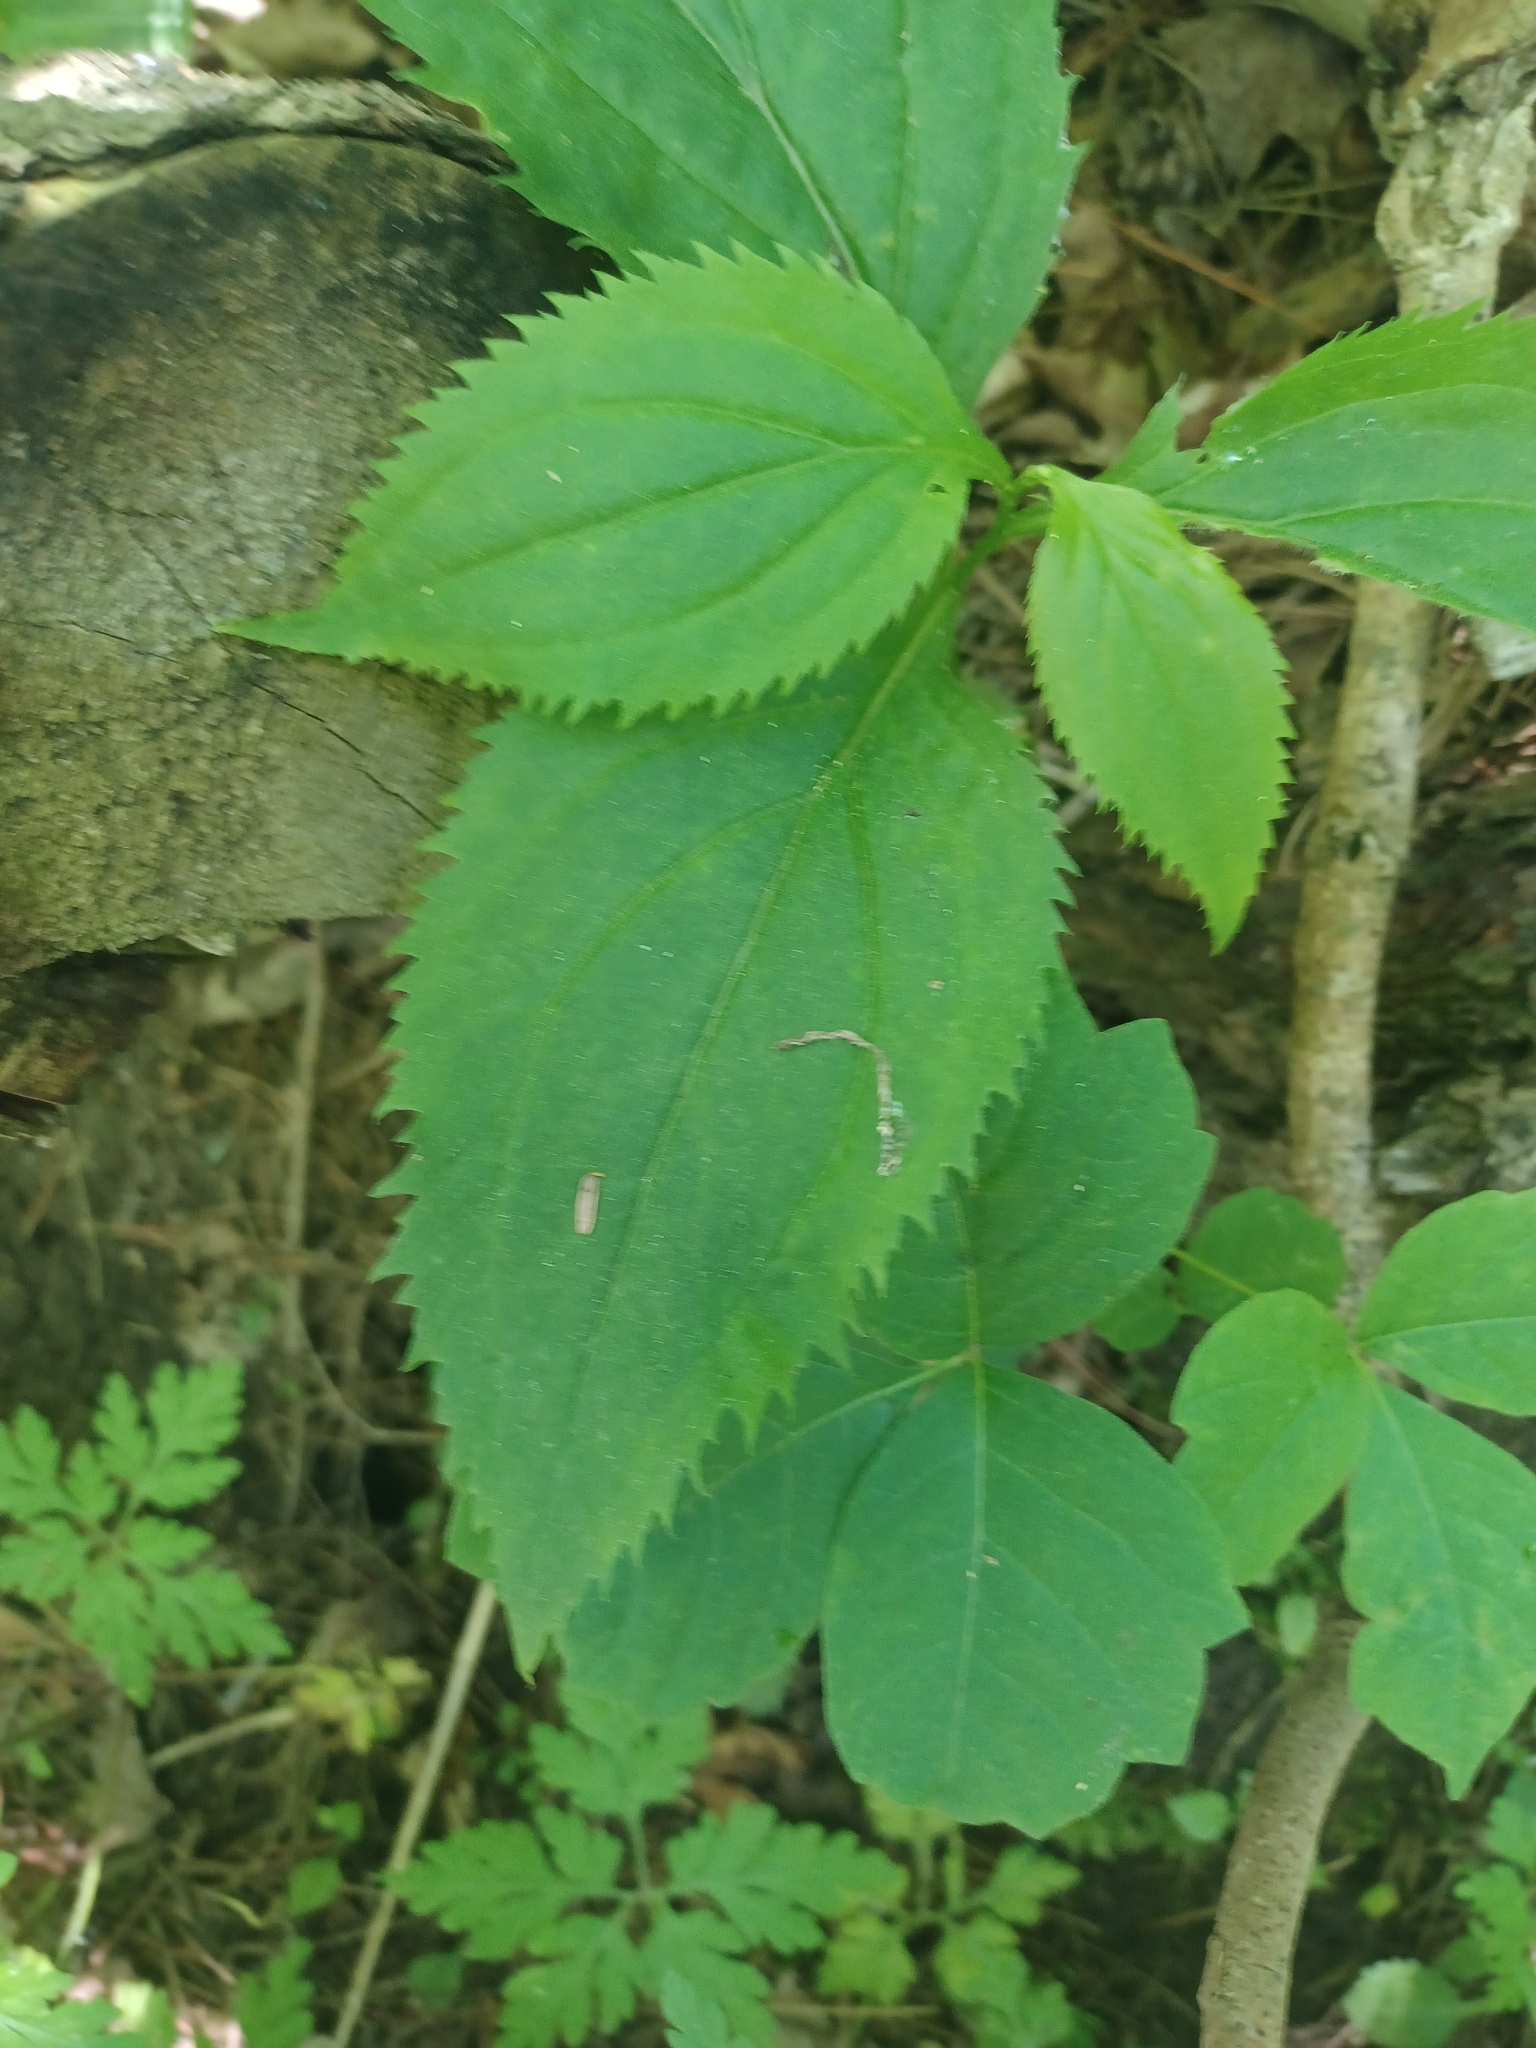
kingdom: Plantae
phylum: Tracheophyta
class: Magnoliopsida
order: Asterales
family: Asteraceae
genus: Solidago
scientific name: Solidago flexicaulis
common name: Zig-zag goldenrod
